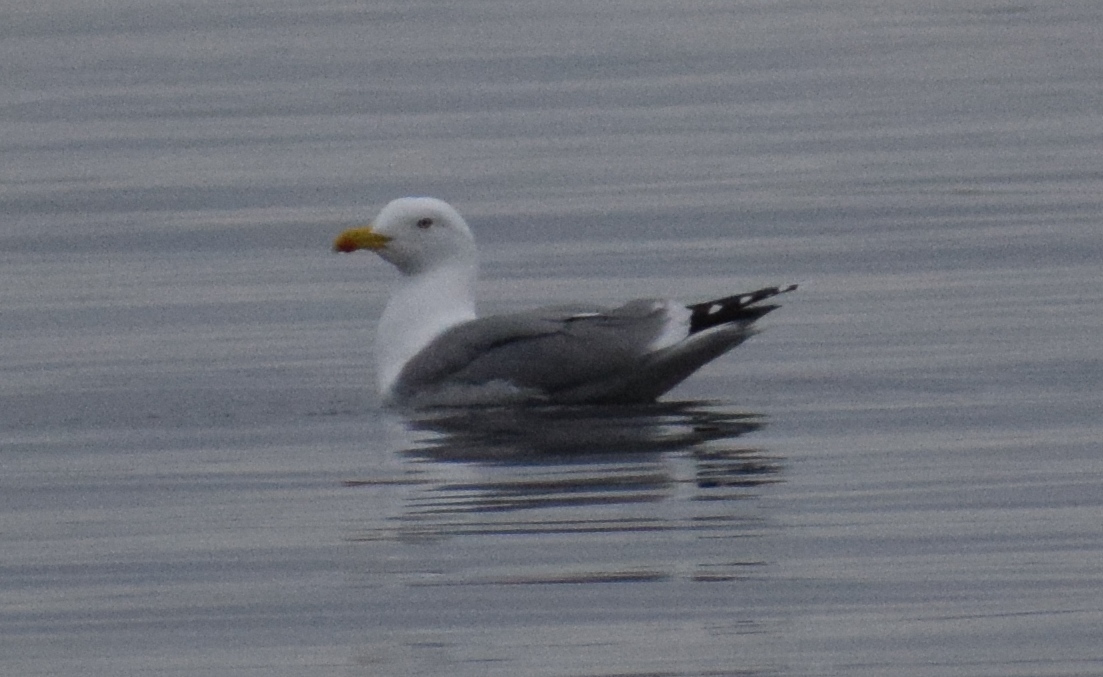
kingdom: Animalia
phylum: Chordata
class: Aves
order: Charadriiformes
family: Laridae
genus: Larus
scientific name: Larus michahellis
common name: Yellow-legged gull
